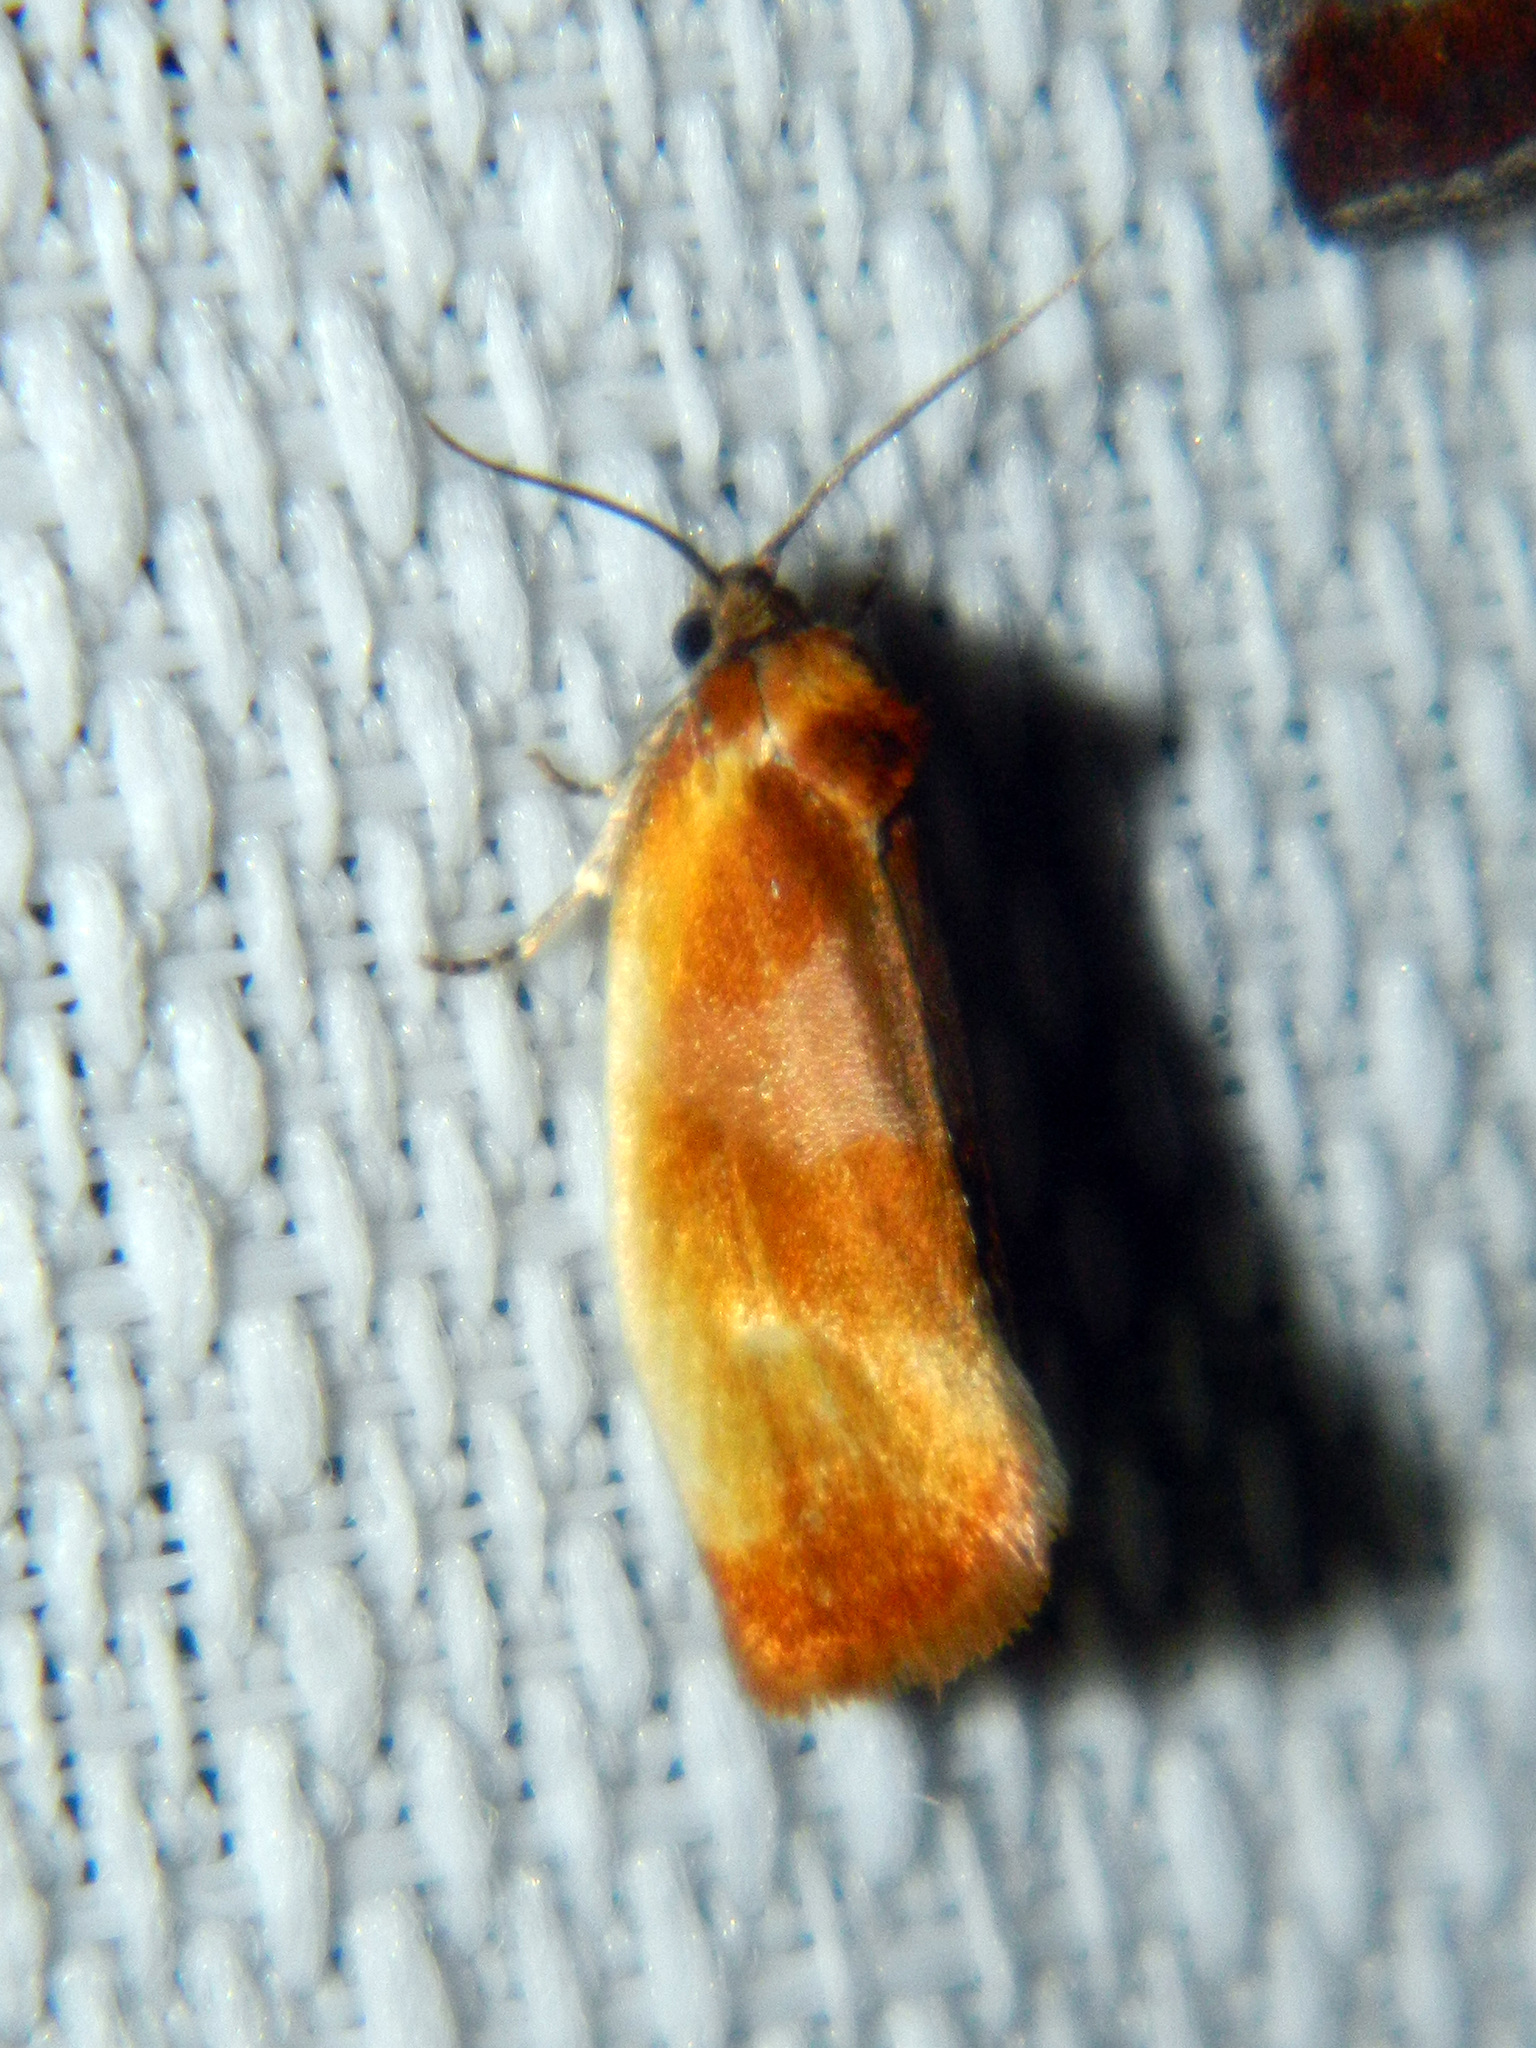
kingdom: Animalia
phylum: Arthropoda
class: Insecta
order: Lepidoptera
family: Tortricidae
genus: Eulia
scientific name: Eulia ministrana
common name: Brassy twist
